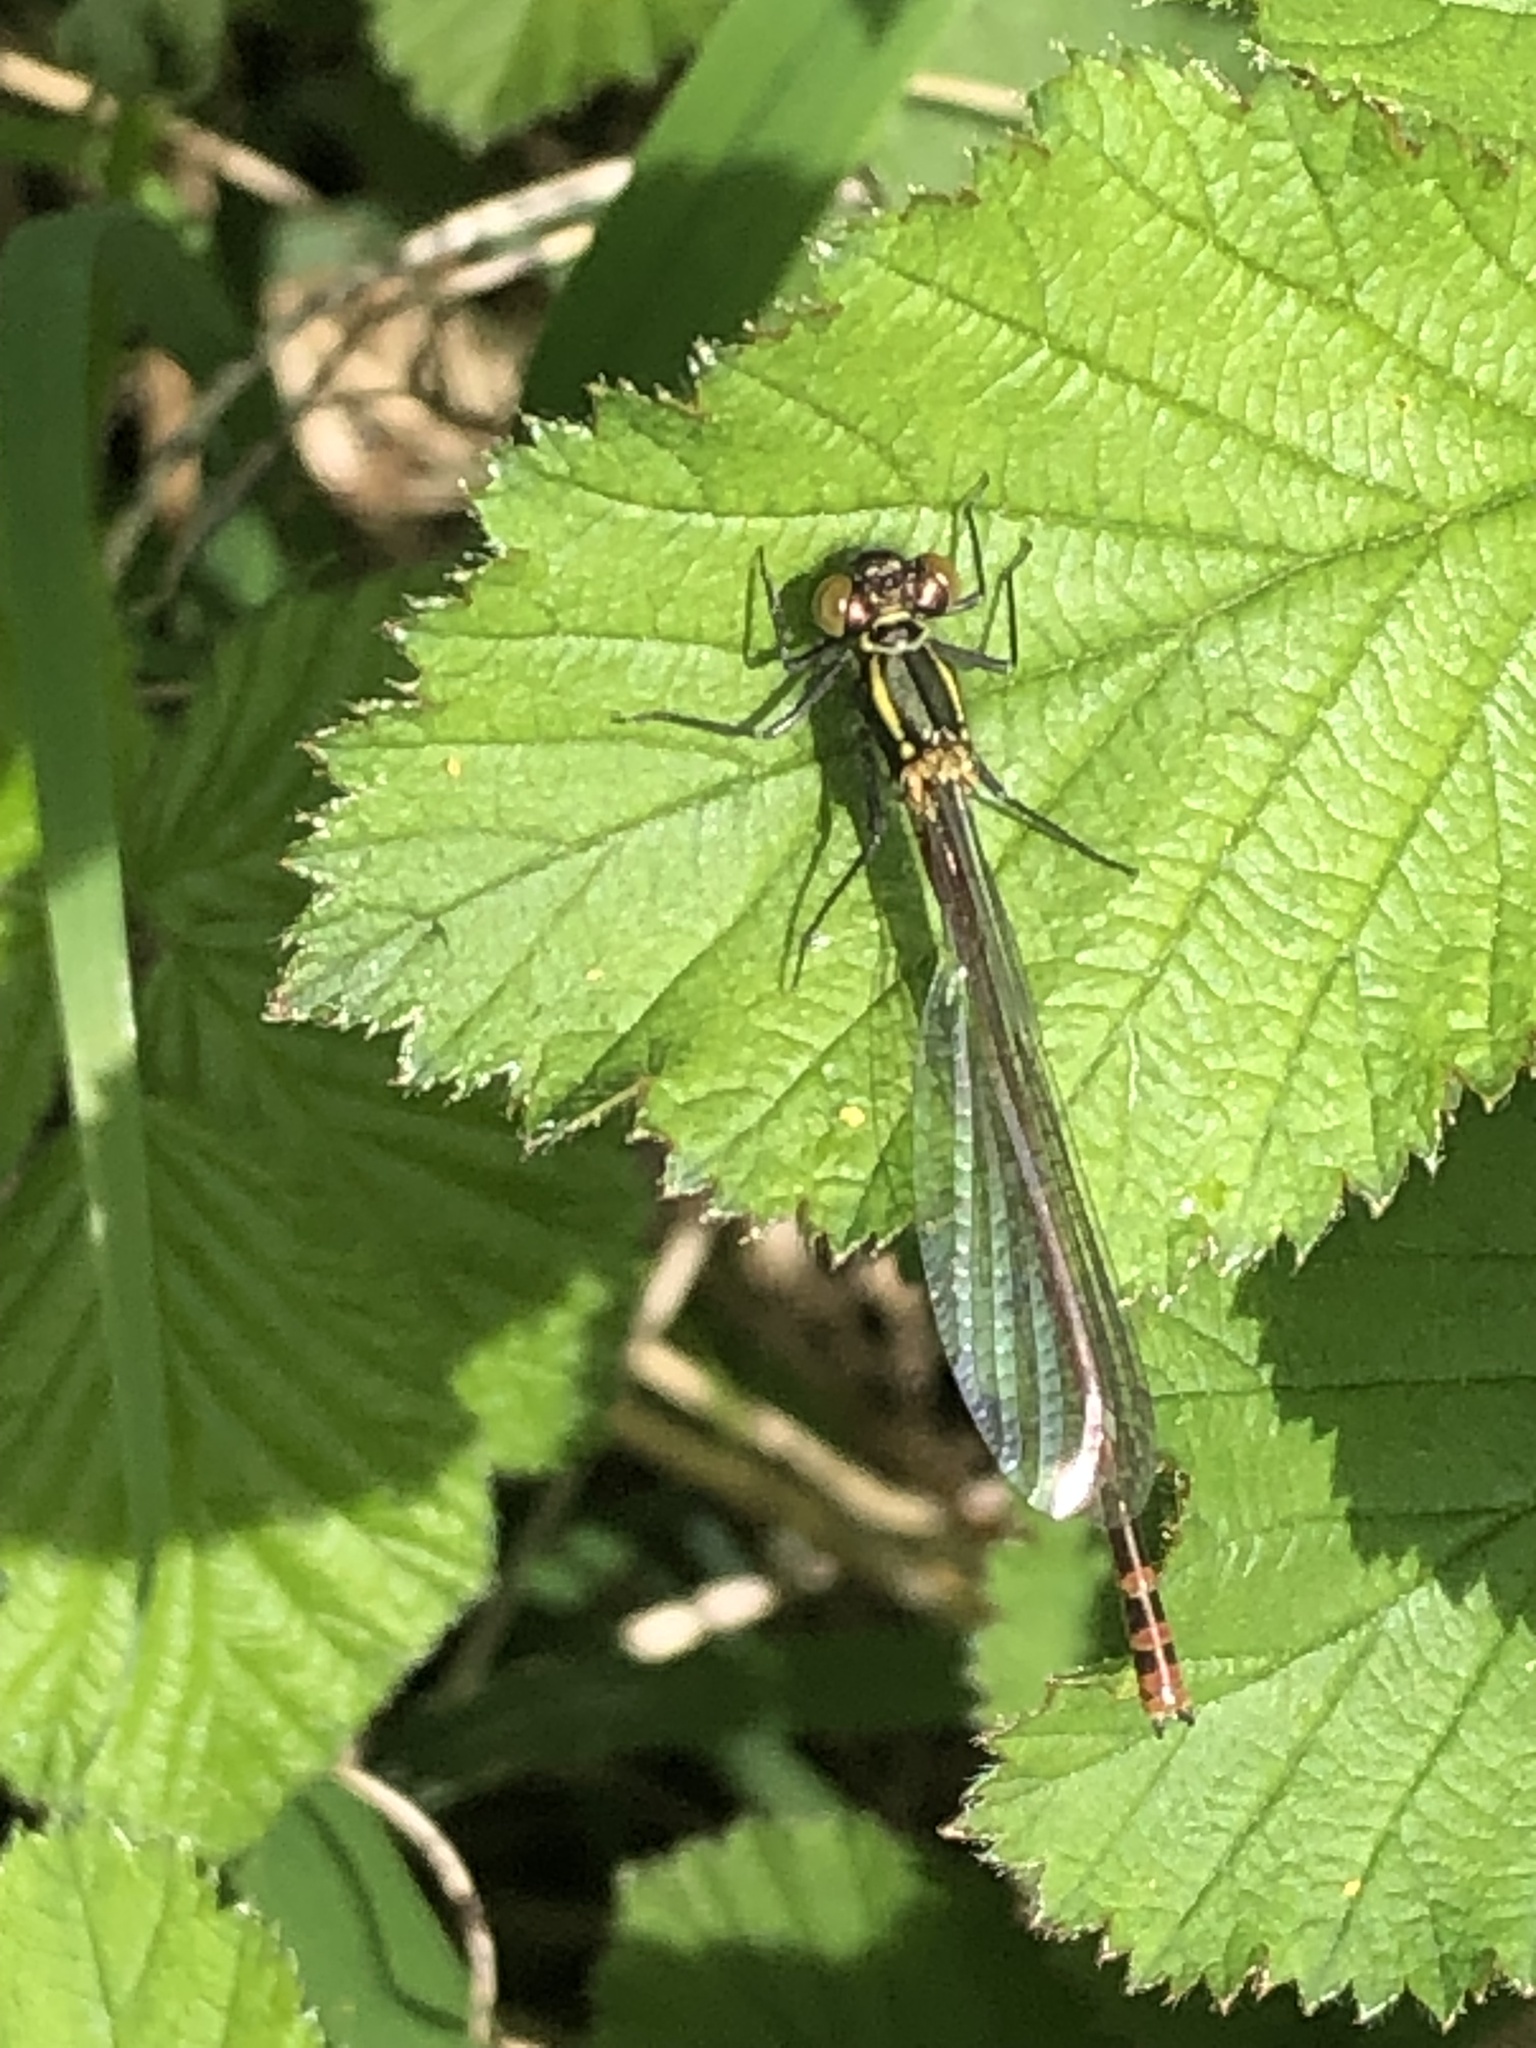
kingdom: Animalia
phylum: Arthropoda
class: Insecta
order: Odonata
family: Coenagrionidae
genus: Pyrrhosoma
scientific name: Pyrrhosoma nymphula
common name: Large red damsel
